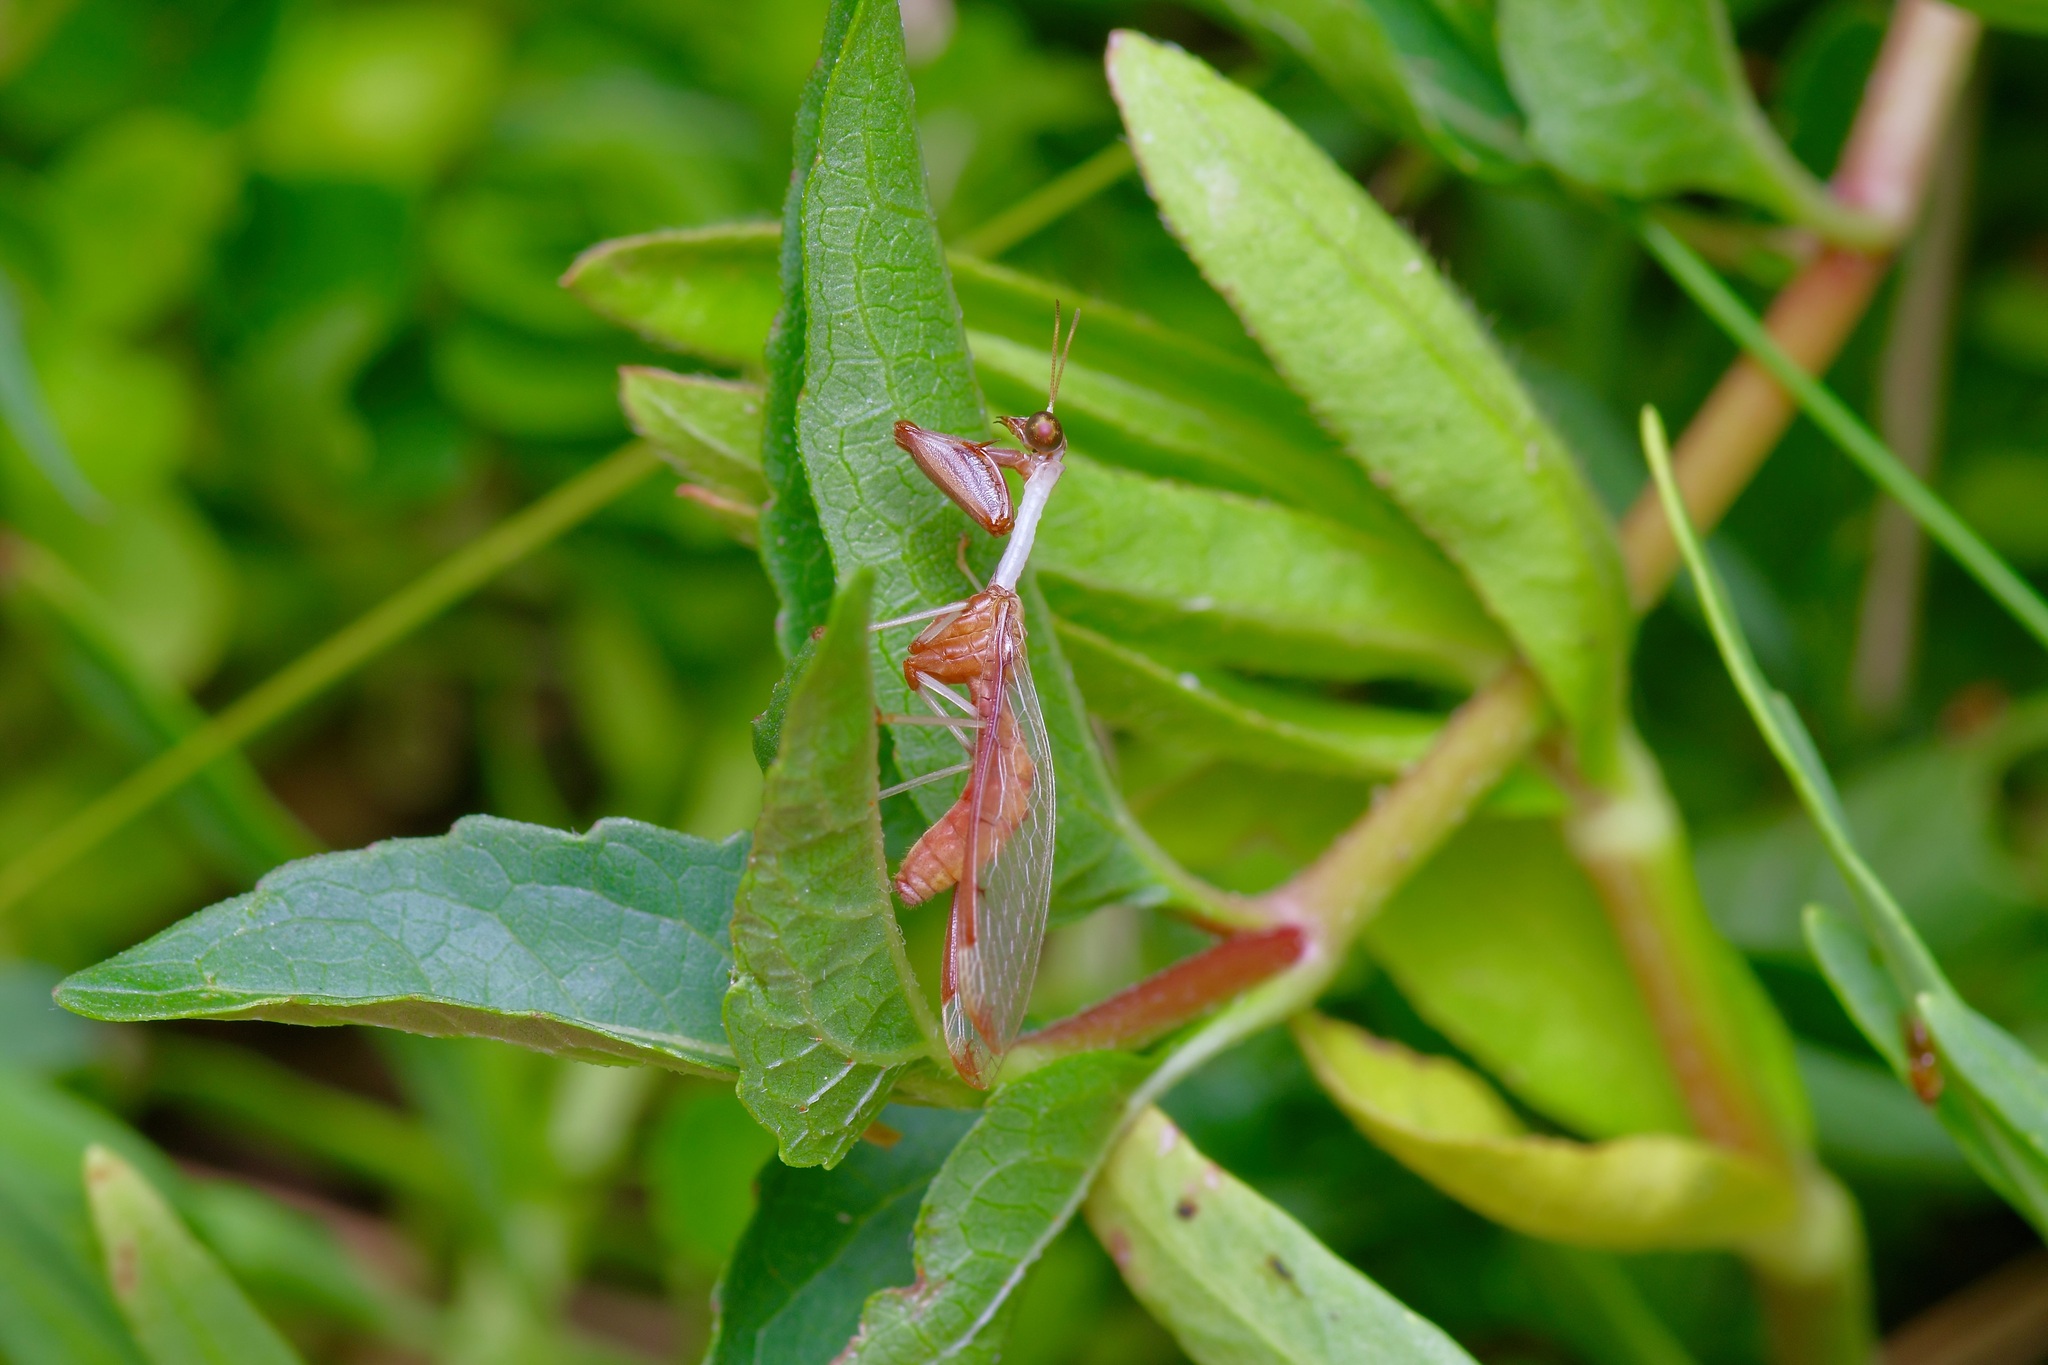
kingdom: Animalia
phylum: Arthropoda
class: Insecta
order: Neuroptera
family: Mantispidae
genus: Dicromantispa
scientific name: Dicromantispa interrupta
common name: Four-spotted mantidfly
